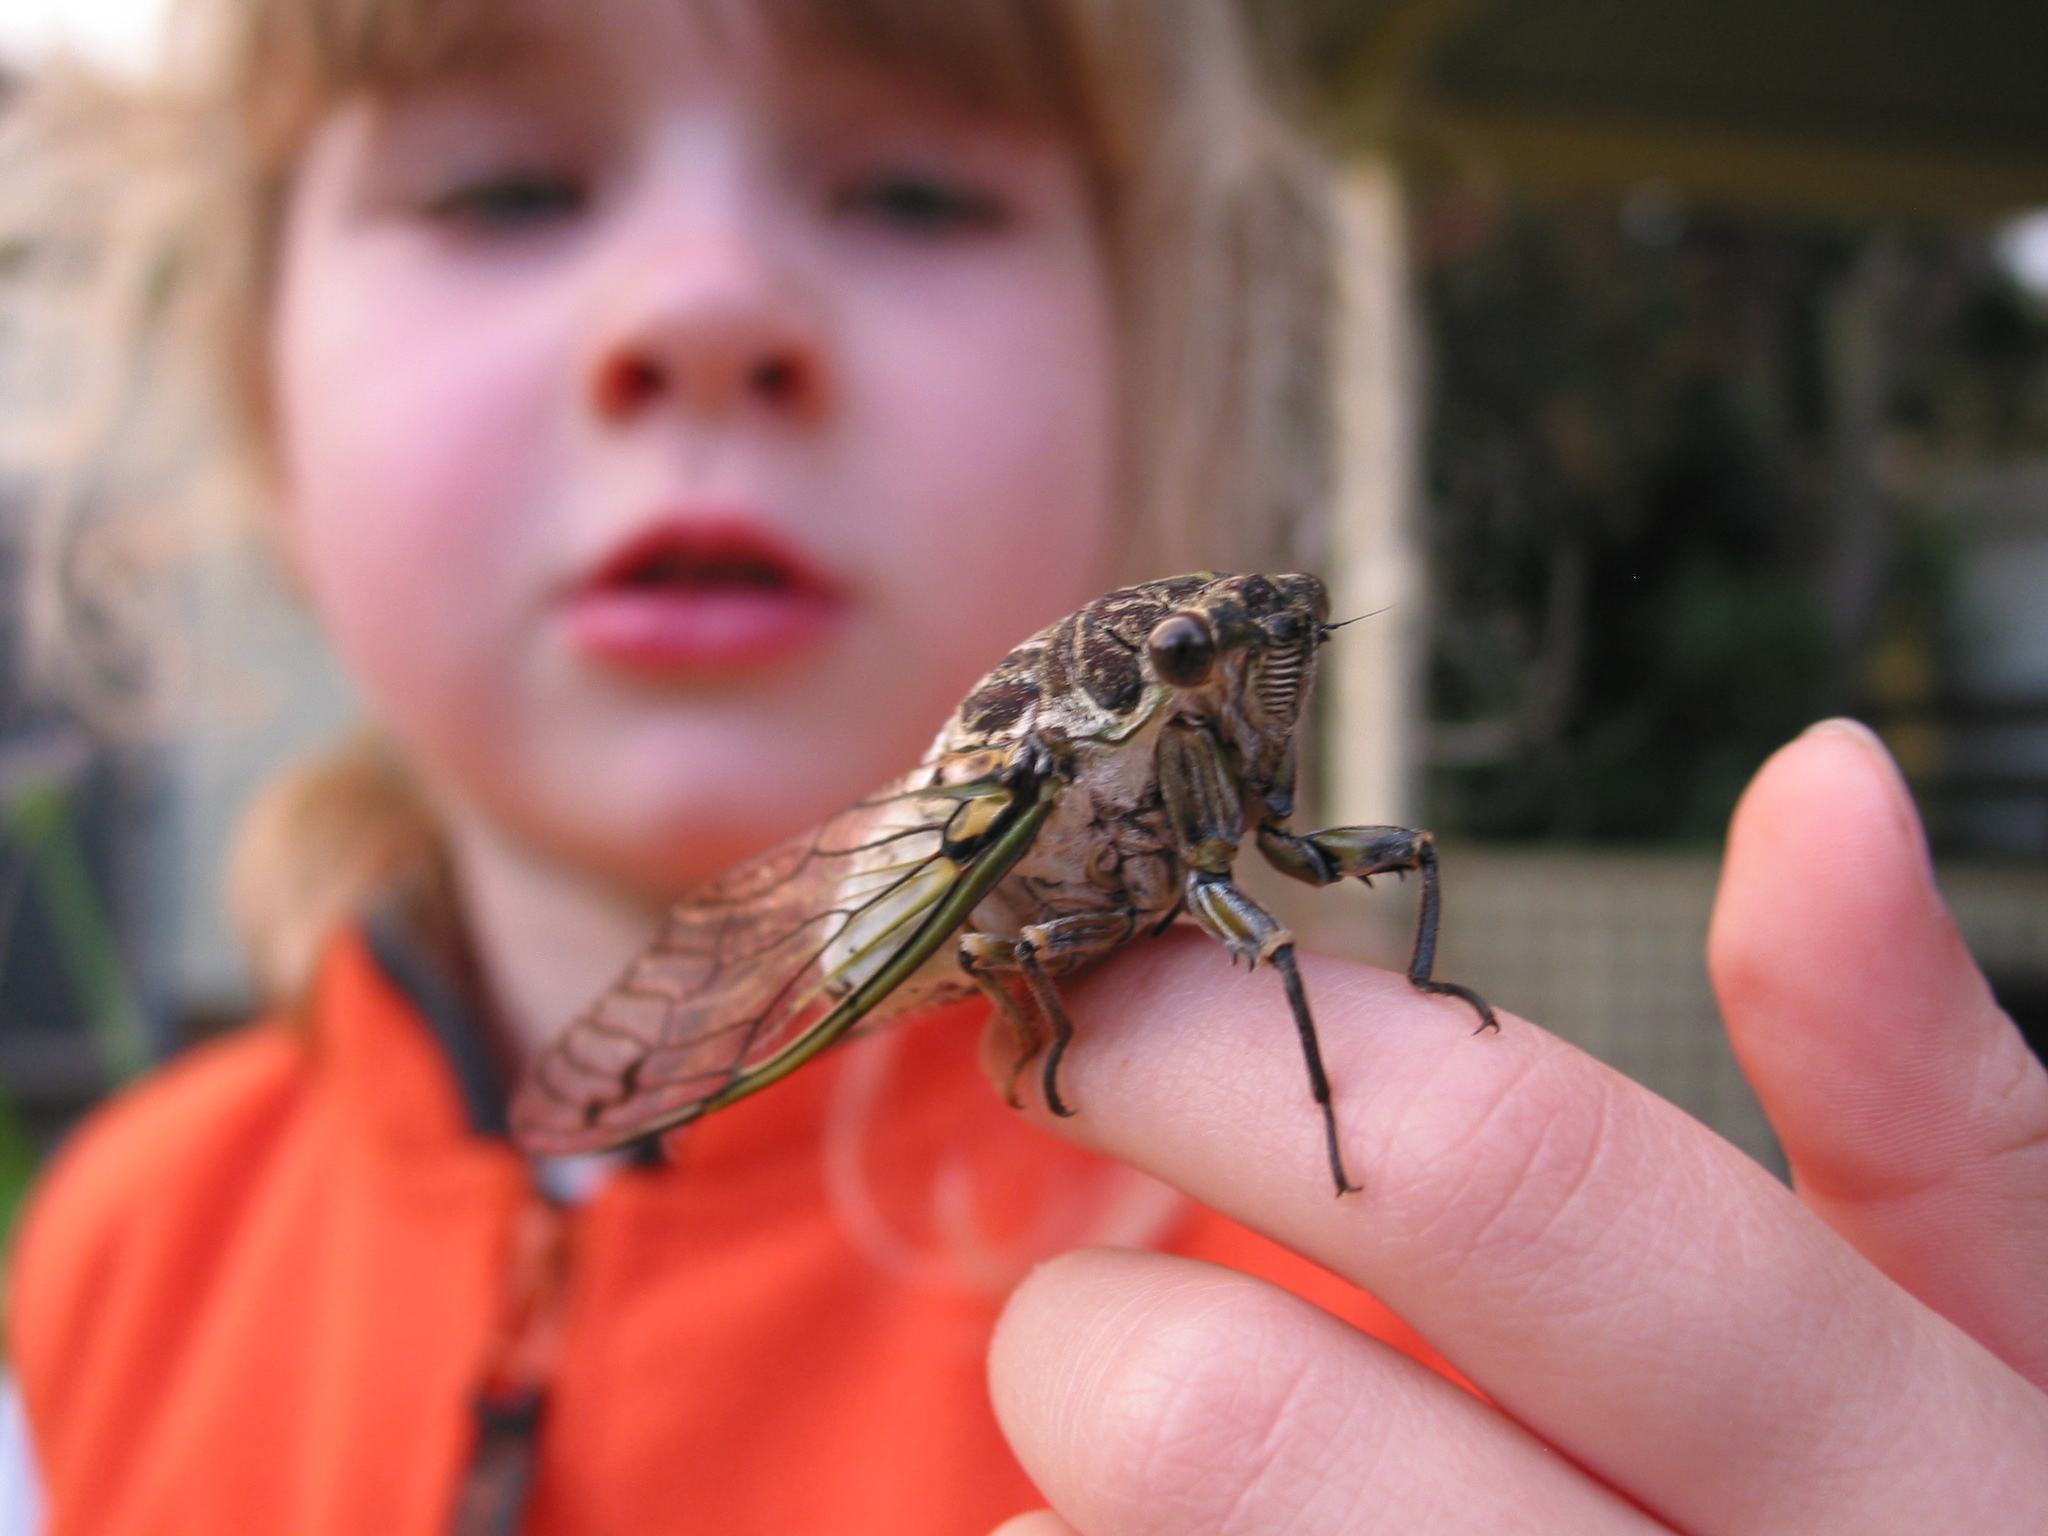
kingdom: Animalia
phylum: Arthropoda
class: Insecta
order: Hemiptera
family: Cicadidae
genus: Arunta
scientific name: Arunta perulata
